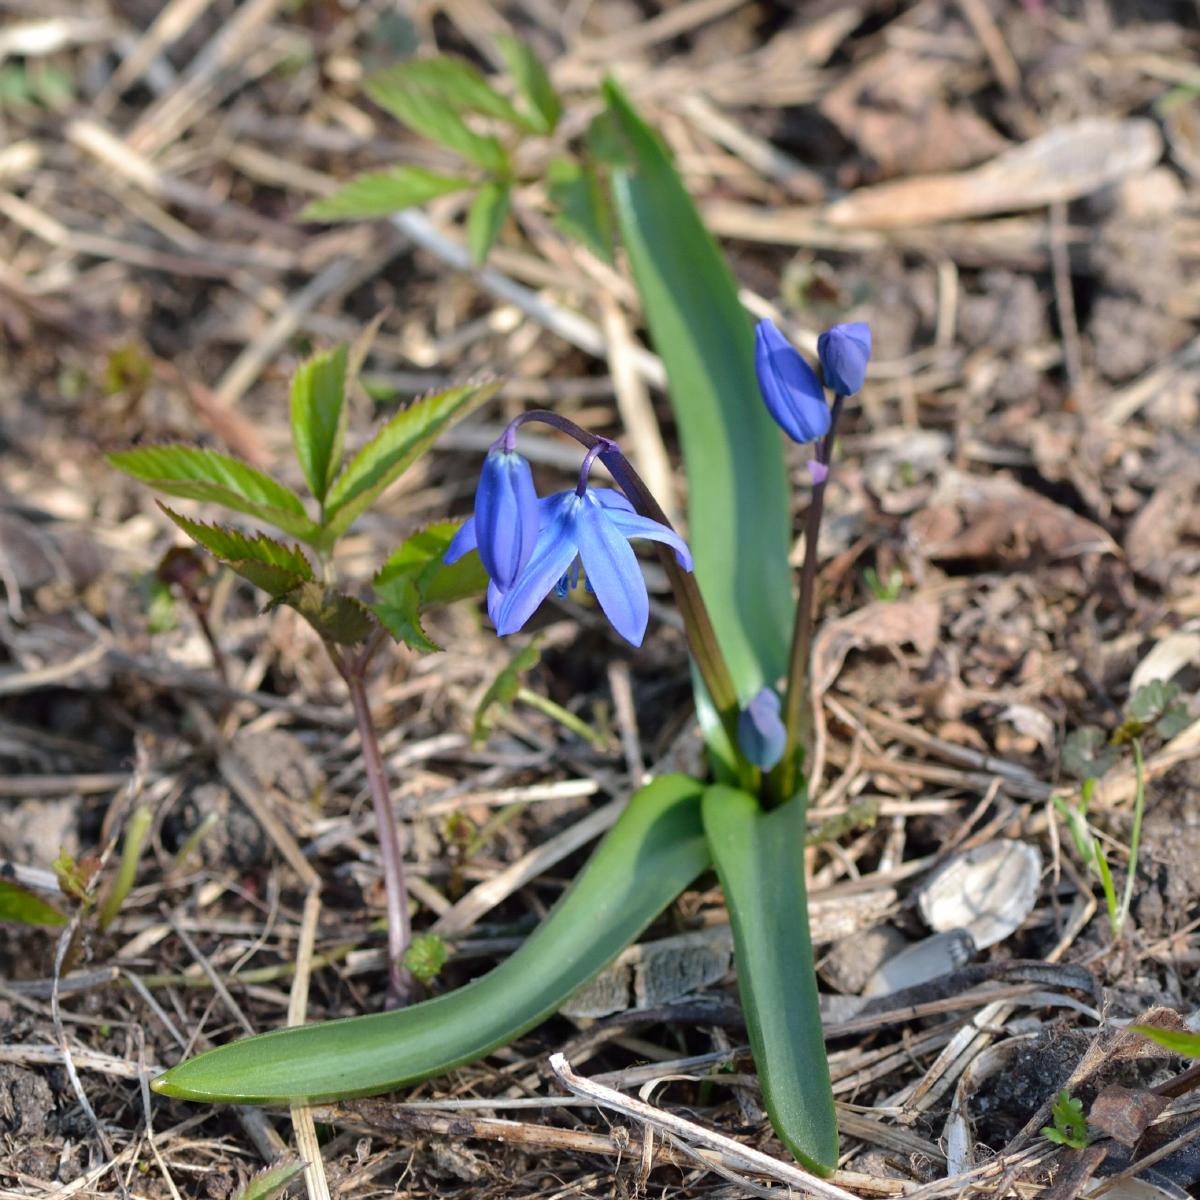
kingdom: Plantae
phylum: Tracheophyta
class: Liliopsida
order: Asparagales
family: Asparagaceae
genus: Scilla
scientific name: Scilla siberica
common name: Siberian squill
